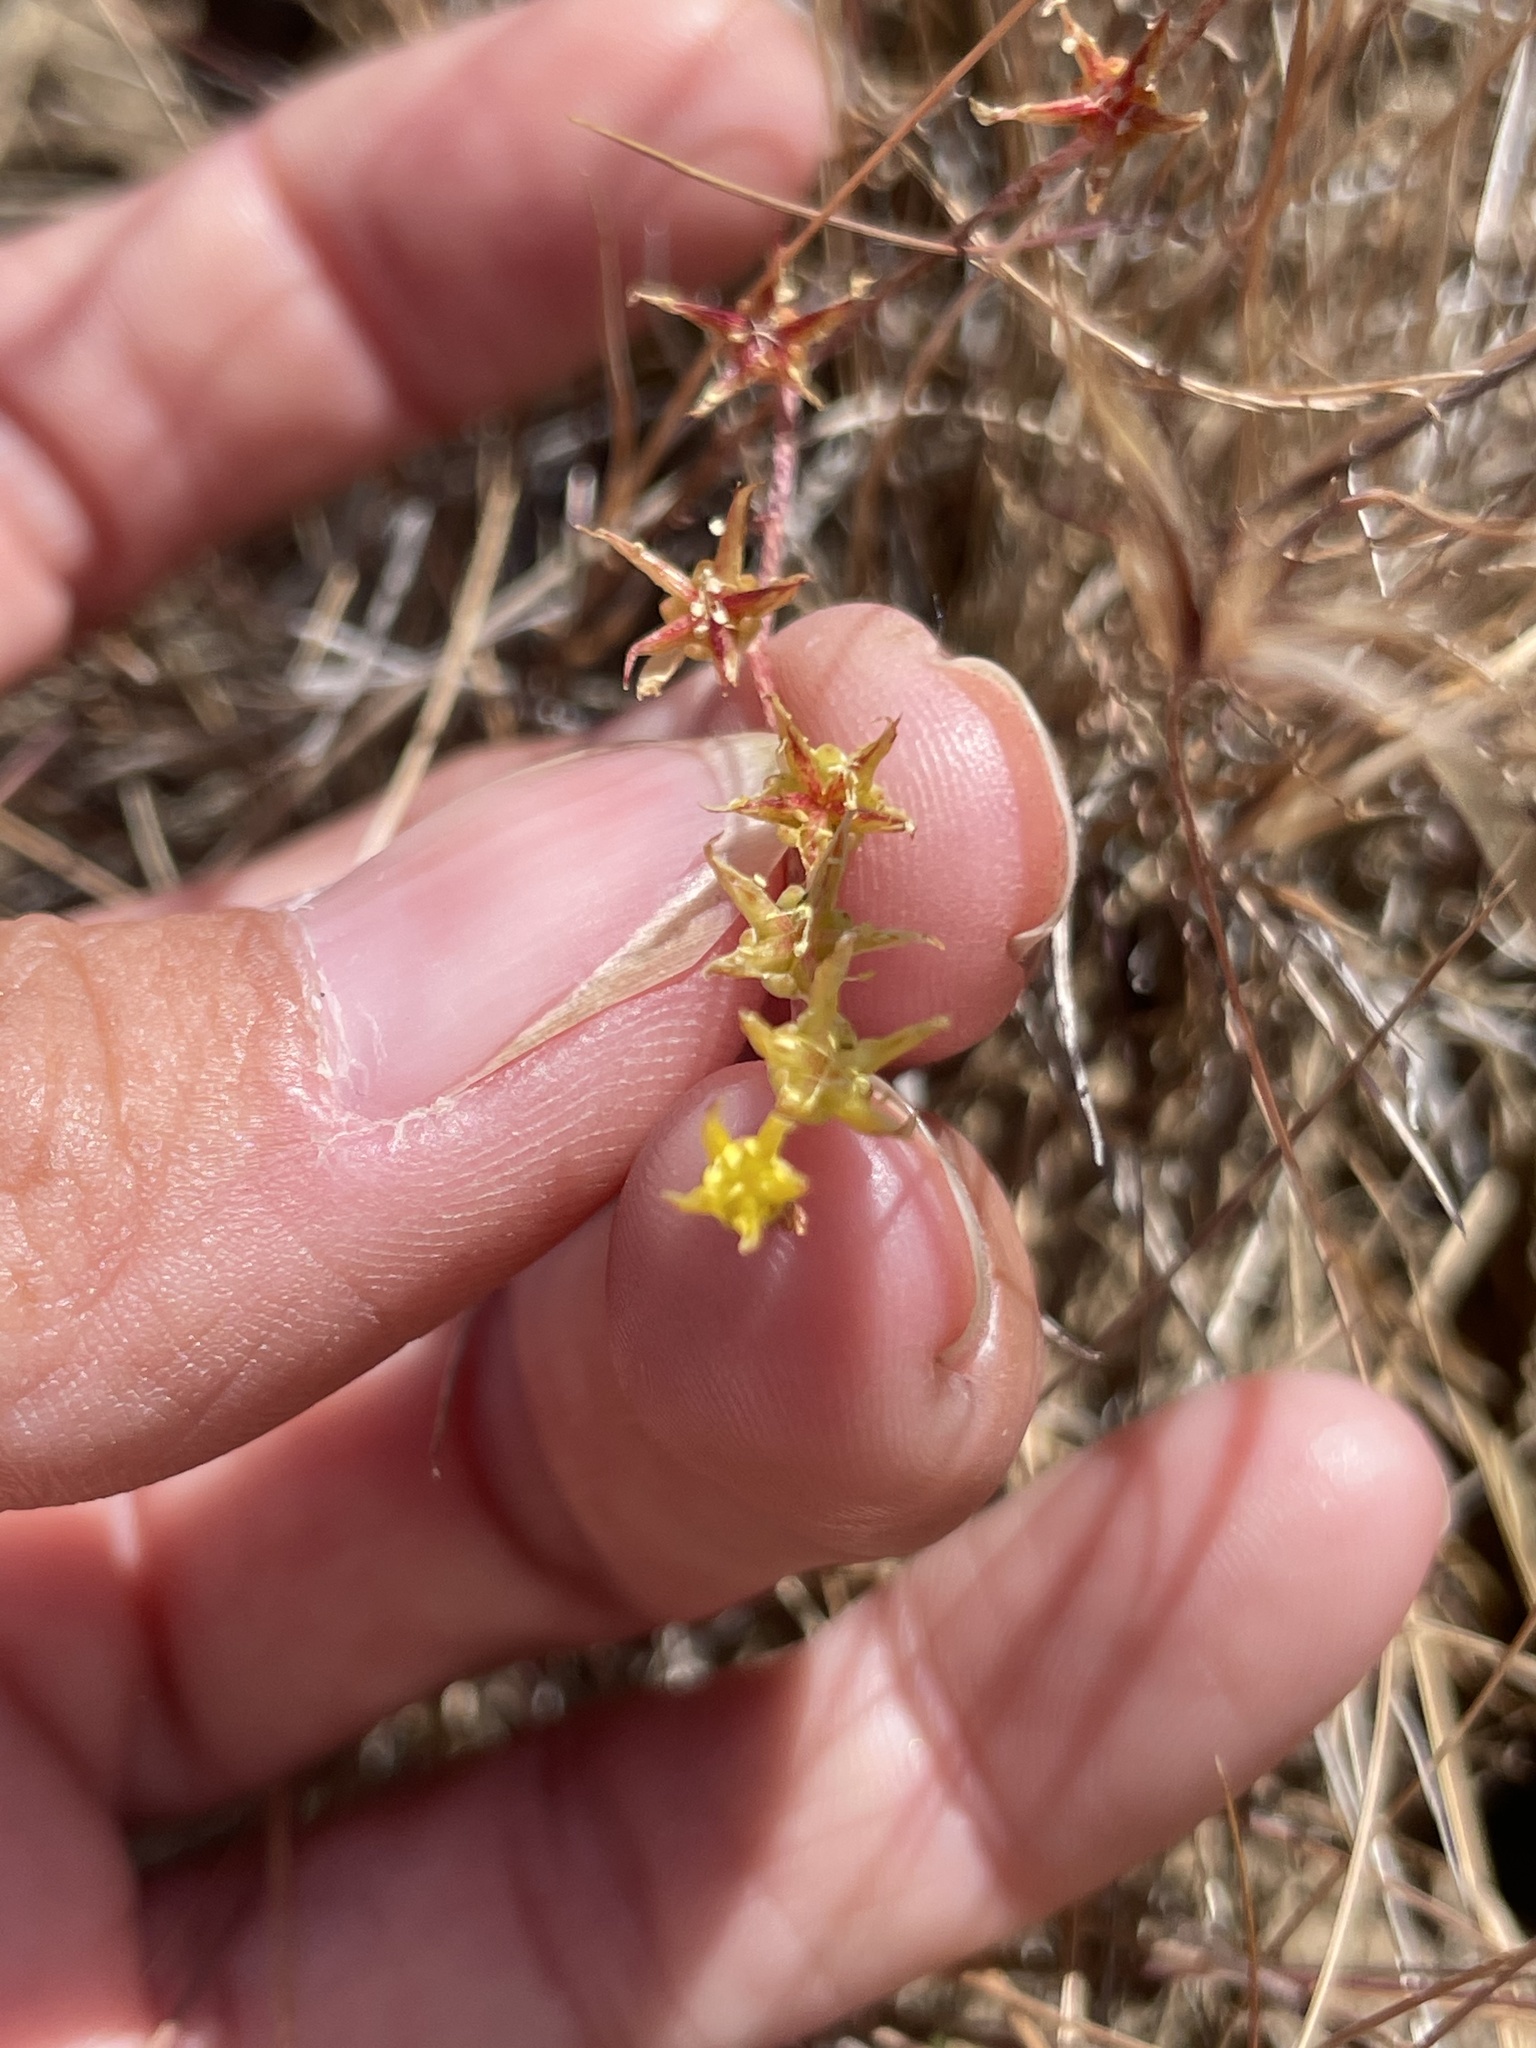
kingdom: Plantae
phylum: Tracheophyta
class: Magnoliopsida
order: Saxifragales
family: Crassulaceae
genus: Dudleya
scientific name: Dudleya variegata
